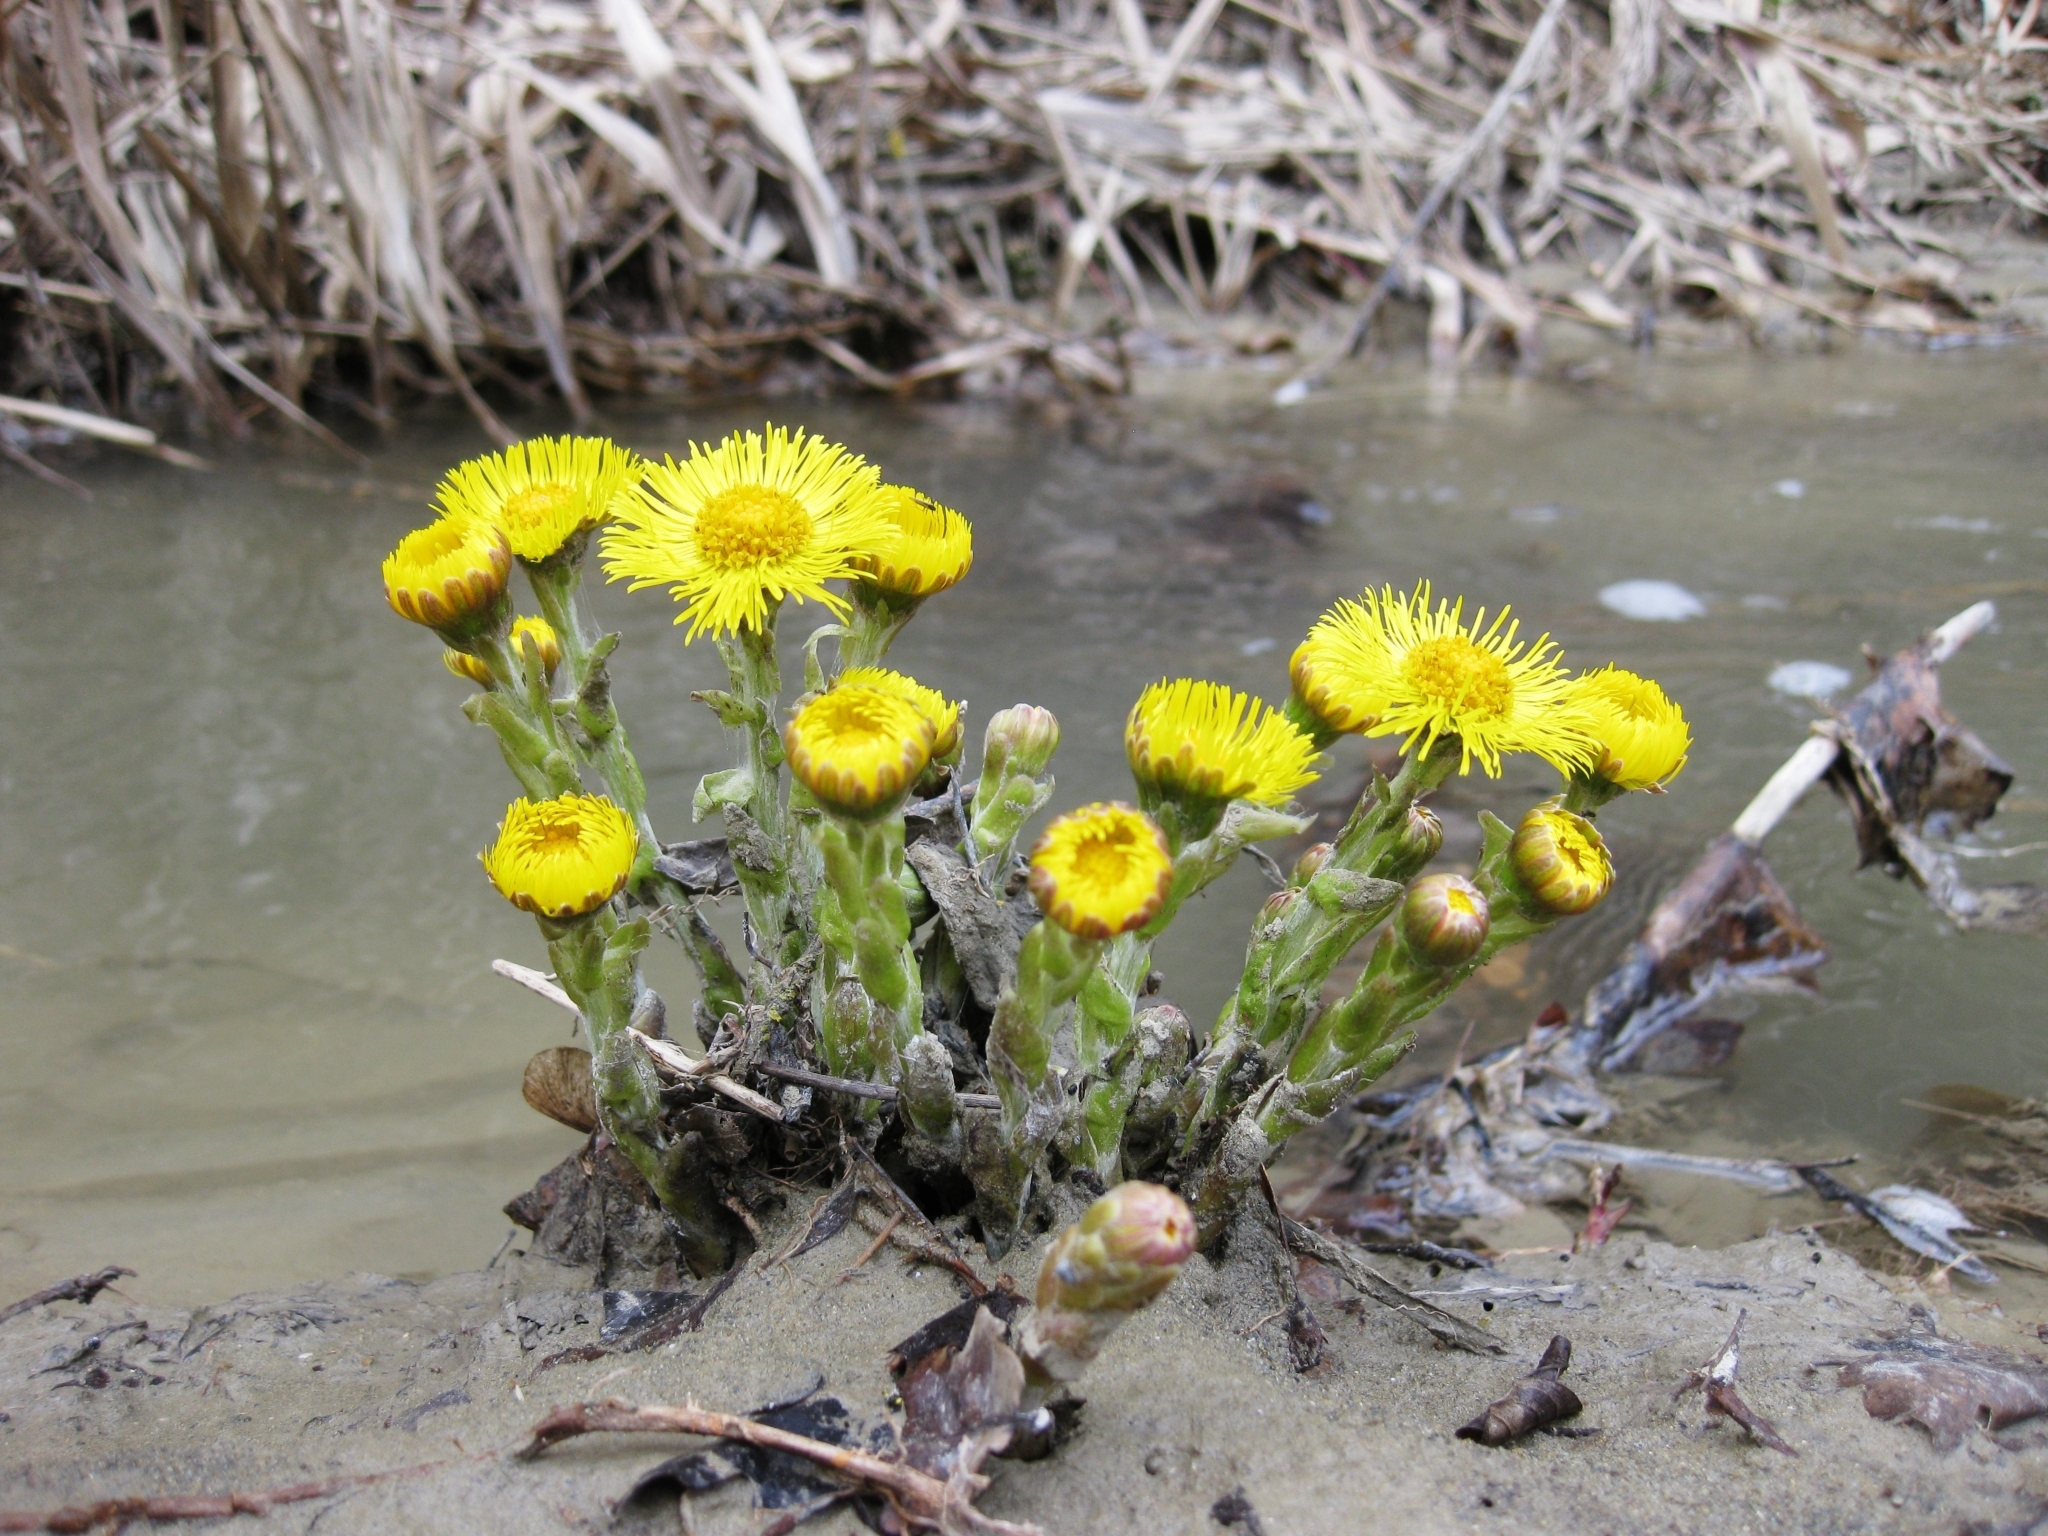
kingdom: Plantae
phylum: Tracheophyta
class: Magnoliopsida
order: Asterales
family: Asteraceae
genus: Tussilago
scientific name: Tussilago farfara
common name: Coltsfoot
